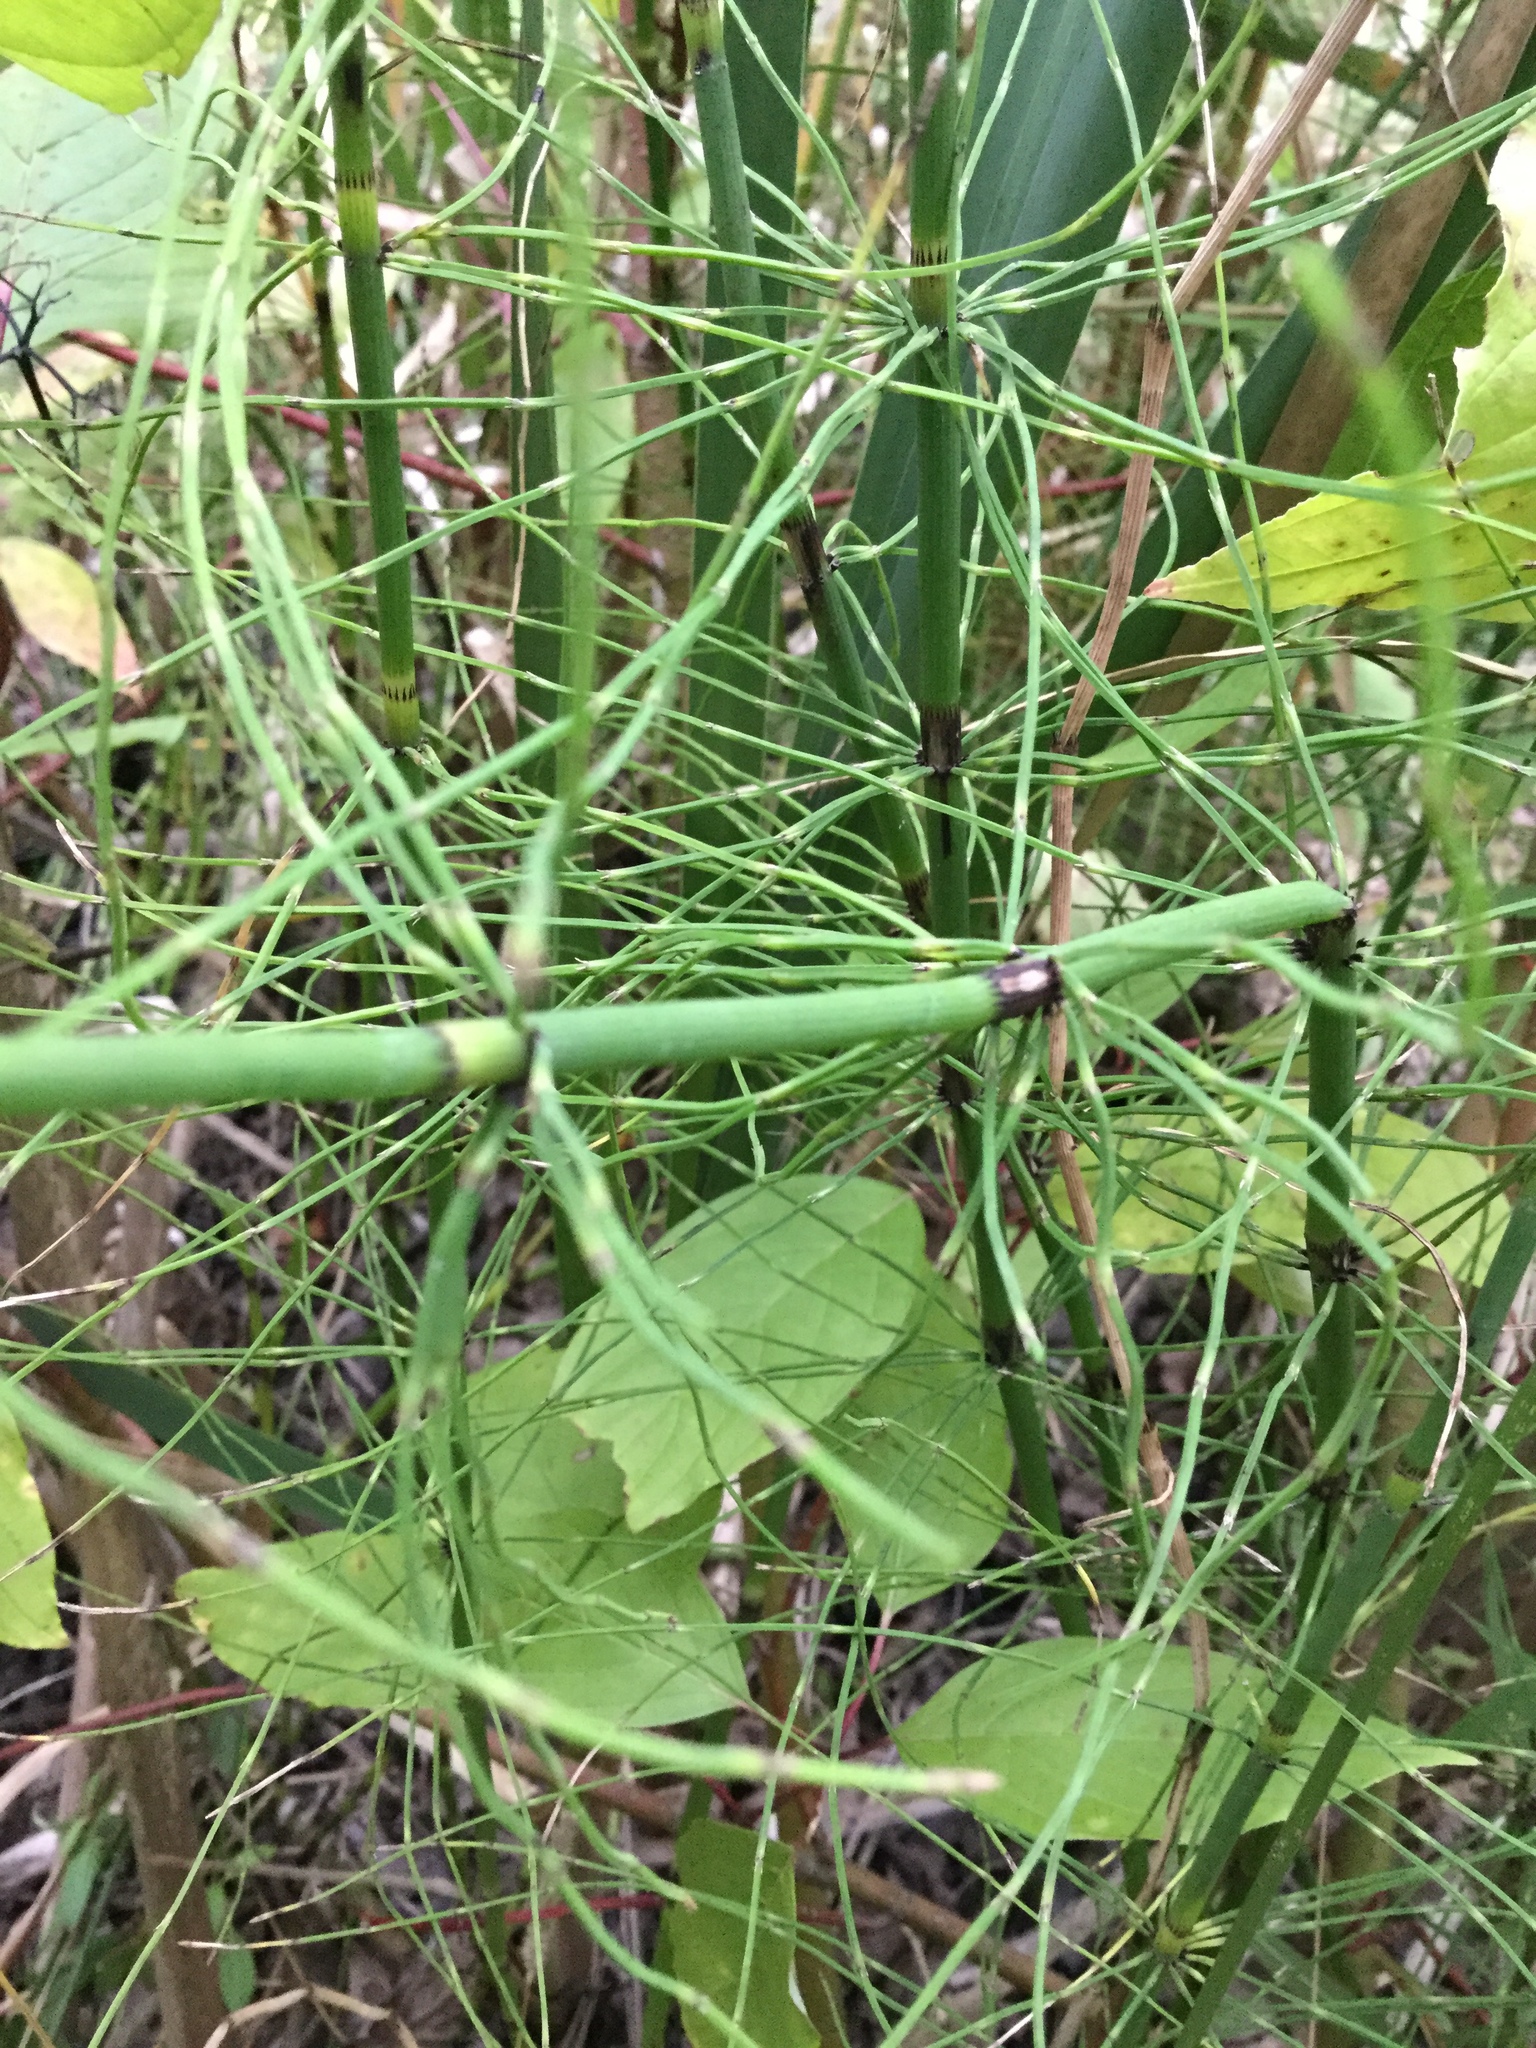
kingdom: Plantae
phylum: Tracheophyta
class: Polypodiopsida
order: Equisetales
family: Equisetaceae
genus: Equisetum
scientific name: Equisetum fluviatile
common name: Water horsetail
